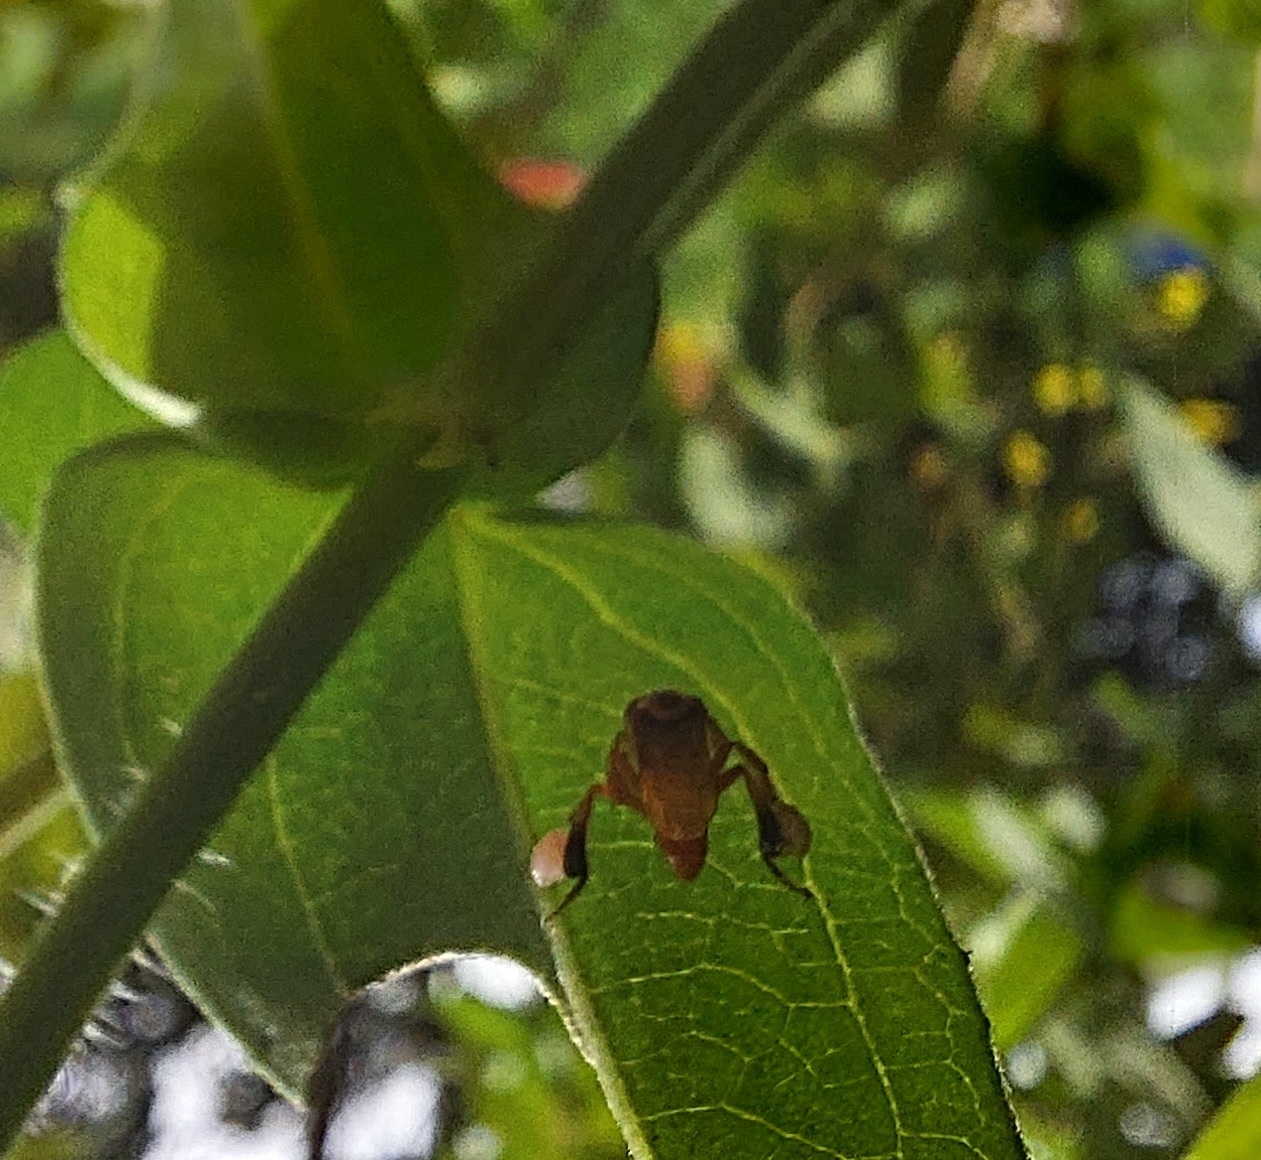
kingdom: Animalia
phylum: Arthropoda
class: Insecta
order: Hymenoptera
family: Apidae
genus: Tetragonisca
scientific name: Tetragonisca angustula
